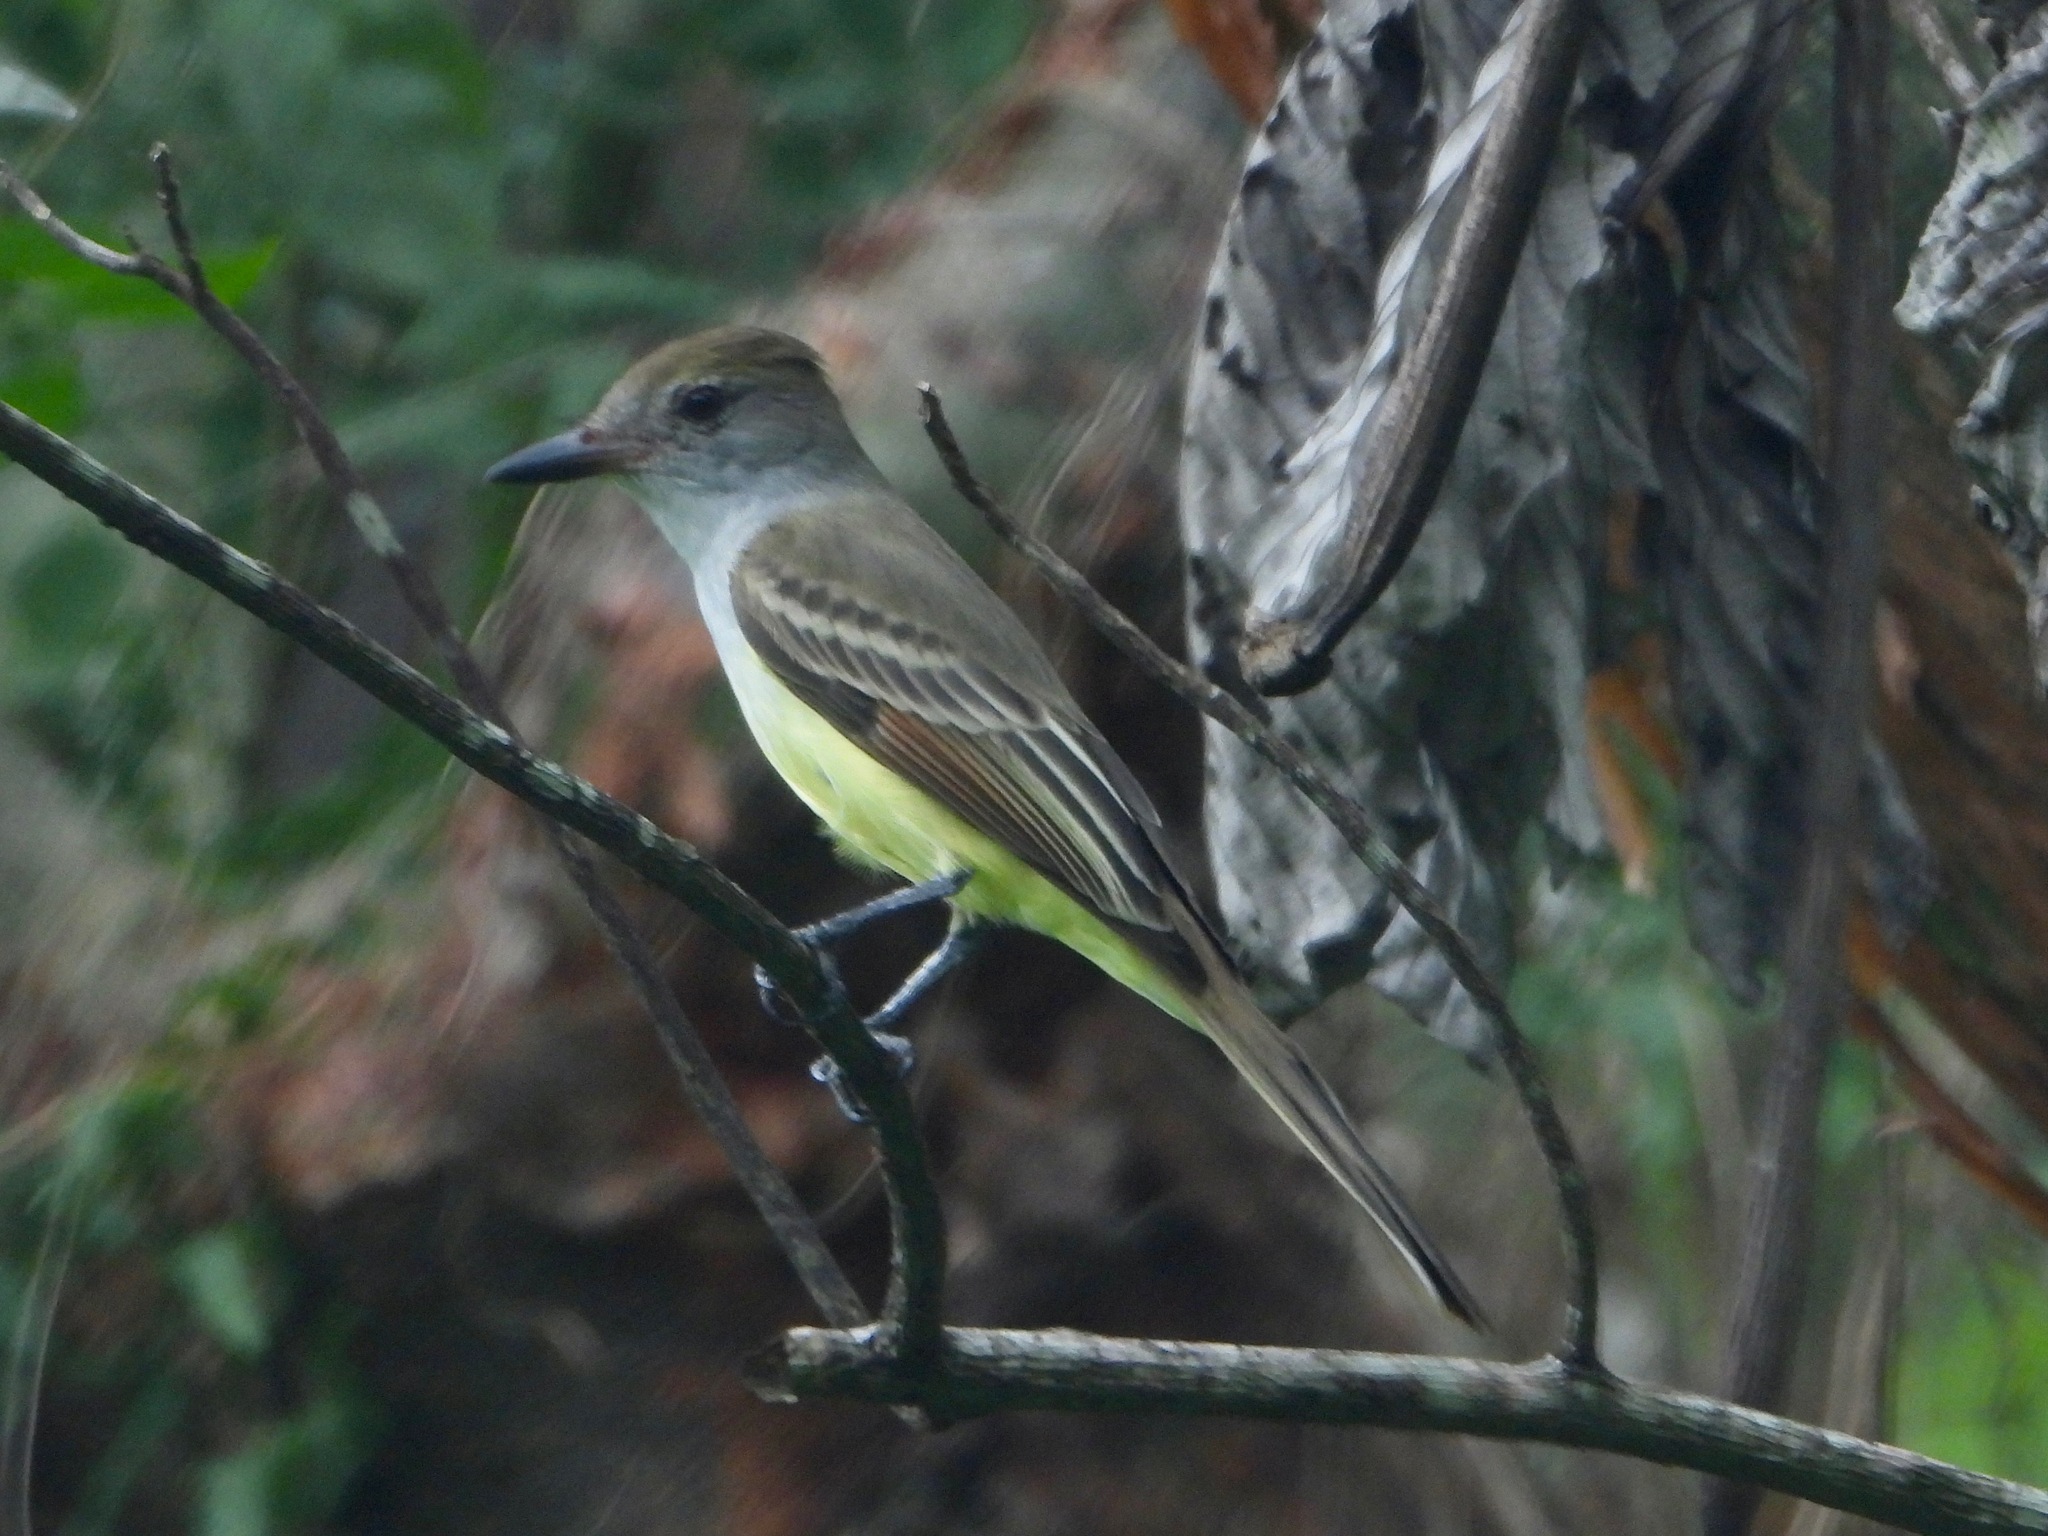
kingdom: Animalia
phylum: Chordata
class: Aves
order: Passeriformes
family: Tyrannidae
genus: Myiarchus
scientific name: Myiarchus tyrannulus
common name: Brown-crested flycatcher
